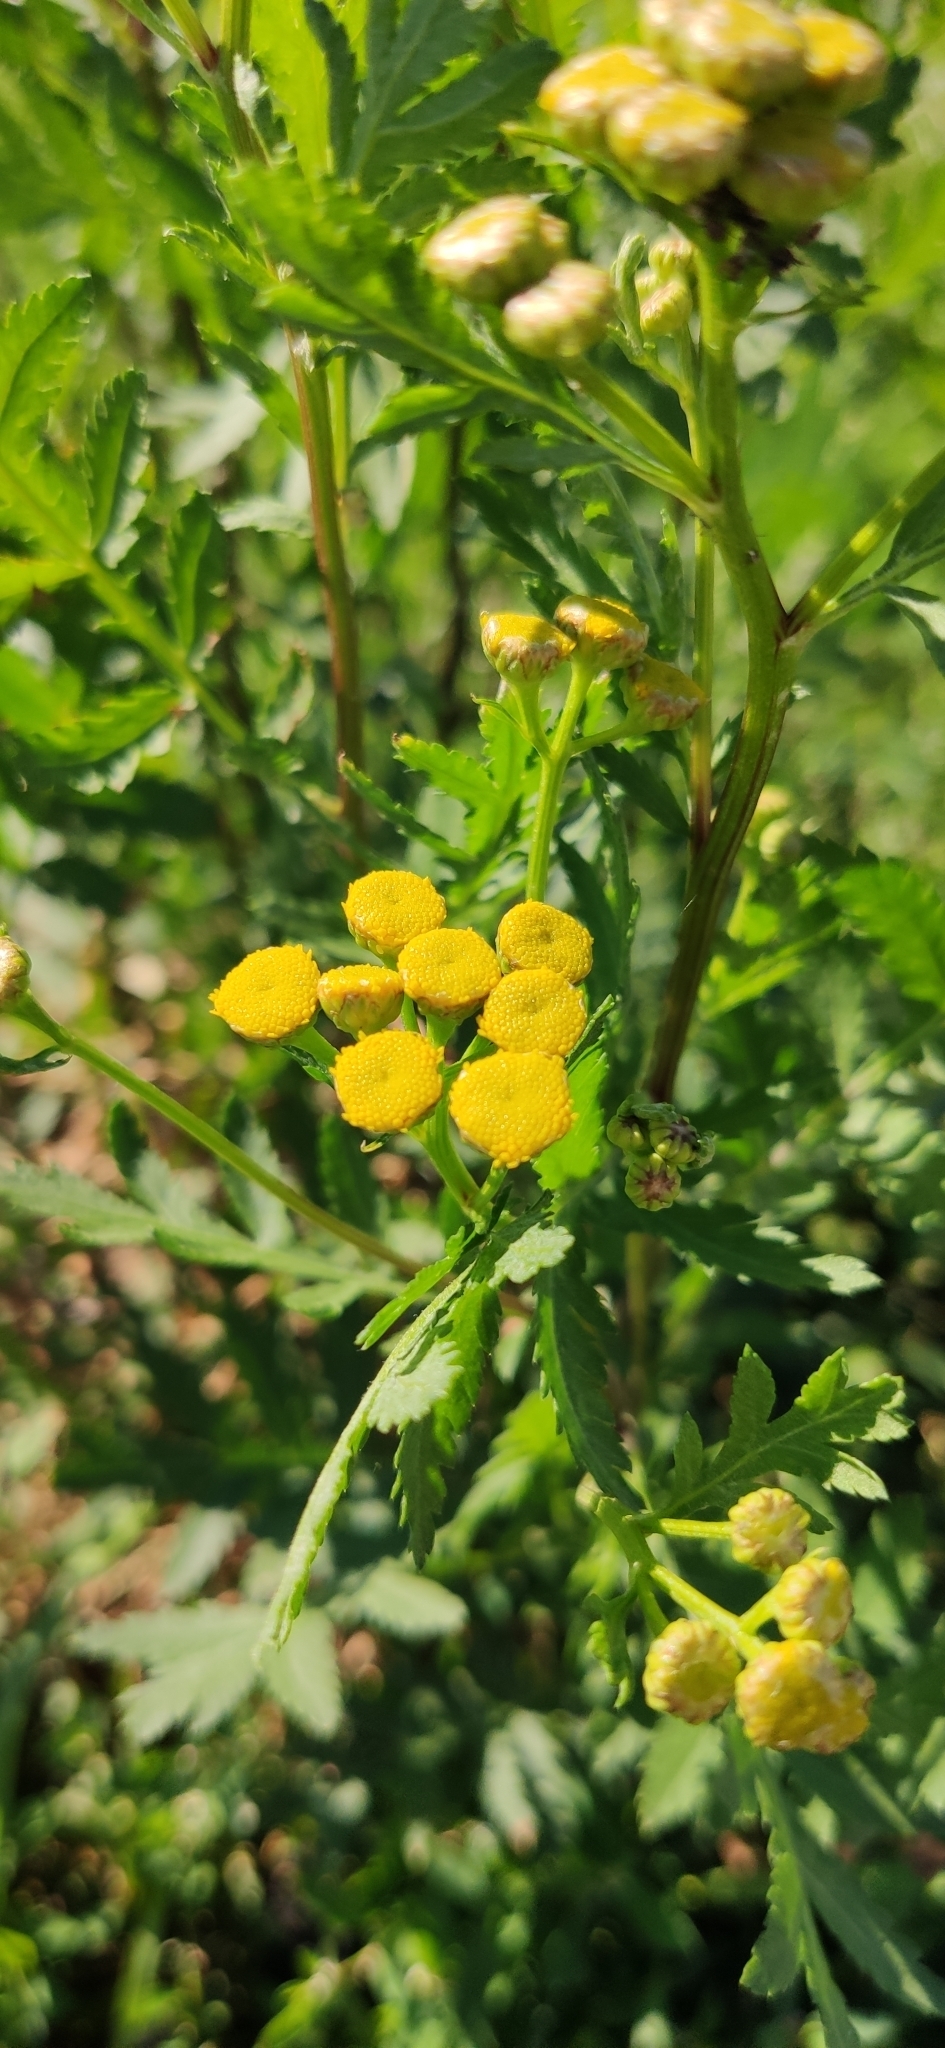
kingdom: Plantae
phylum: Tracheophyta
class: Magnoliopsida
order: Asterales
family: Asteraceae
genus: Tanacetum
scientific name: Tanacetum vulgare
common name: Common tansy
